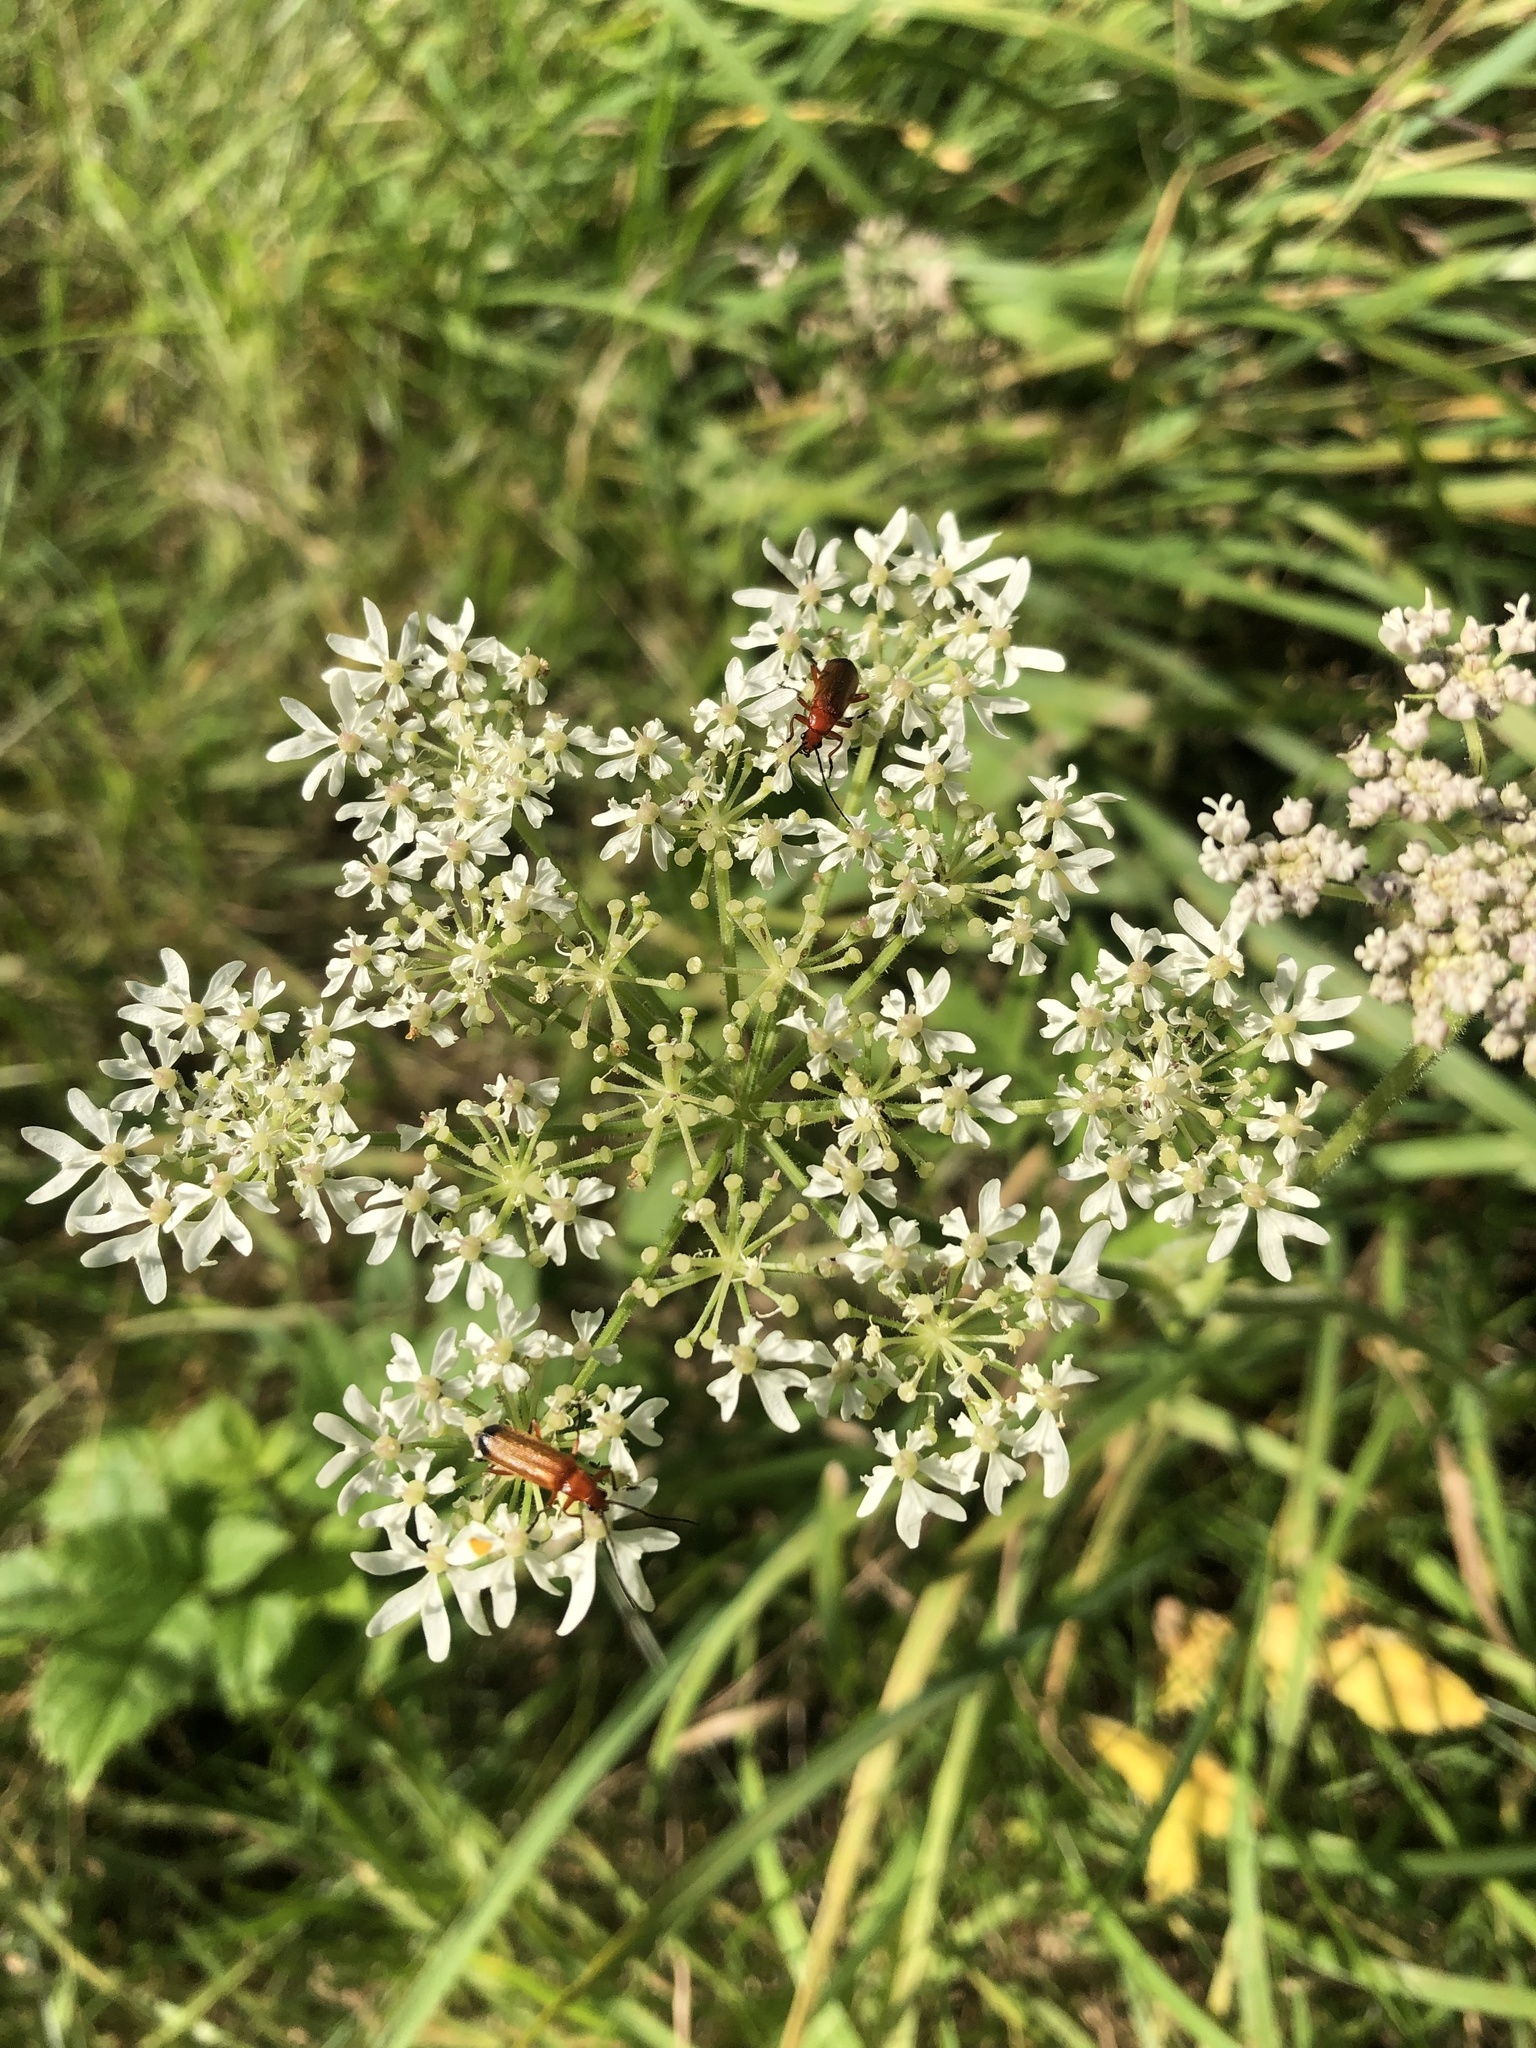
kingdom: Animalia
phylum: Arthropoda
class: Insecta
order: Coleoptera
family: Cantharidae
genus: Rhagonycha
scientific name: Rhagonycha fulva
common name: Common red soldier beetle
